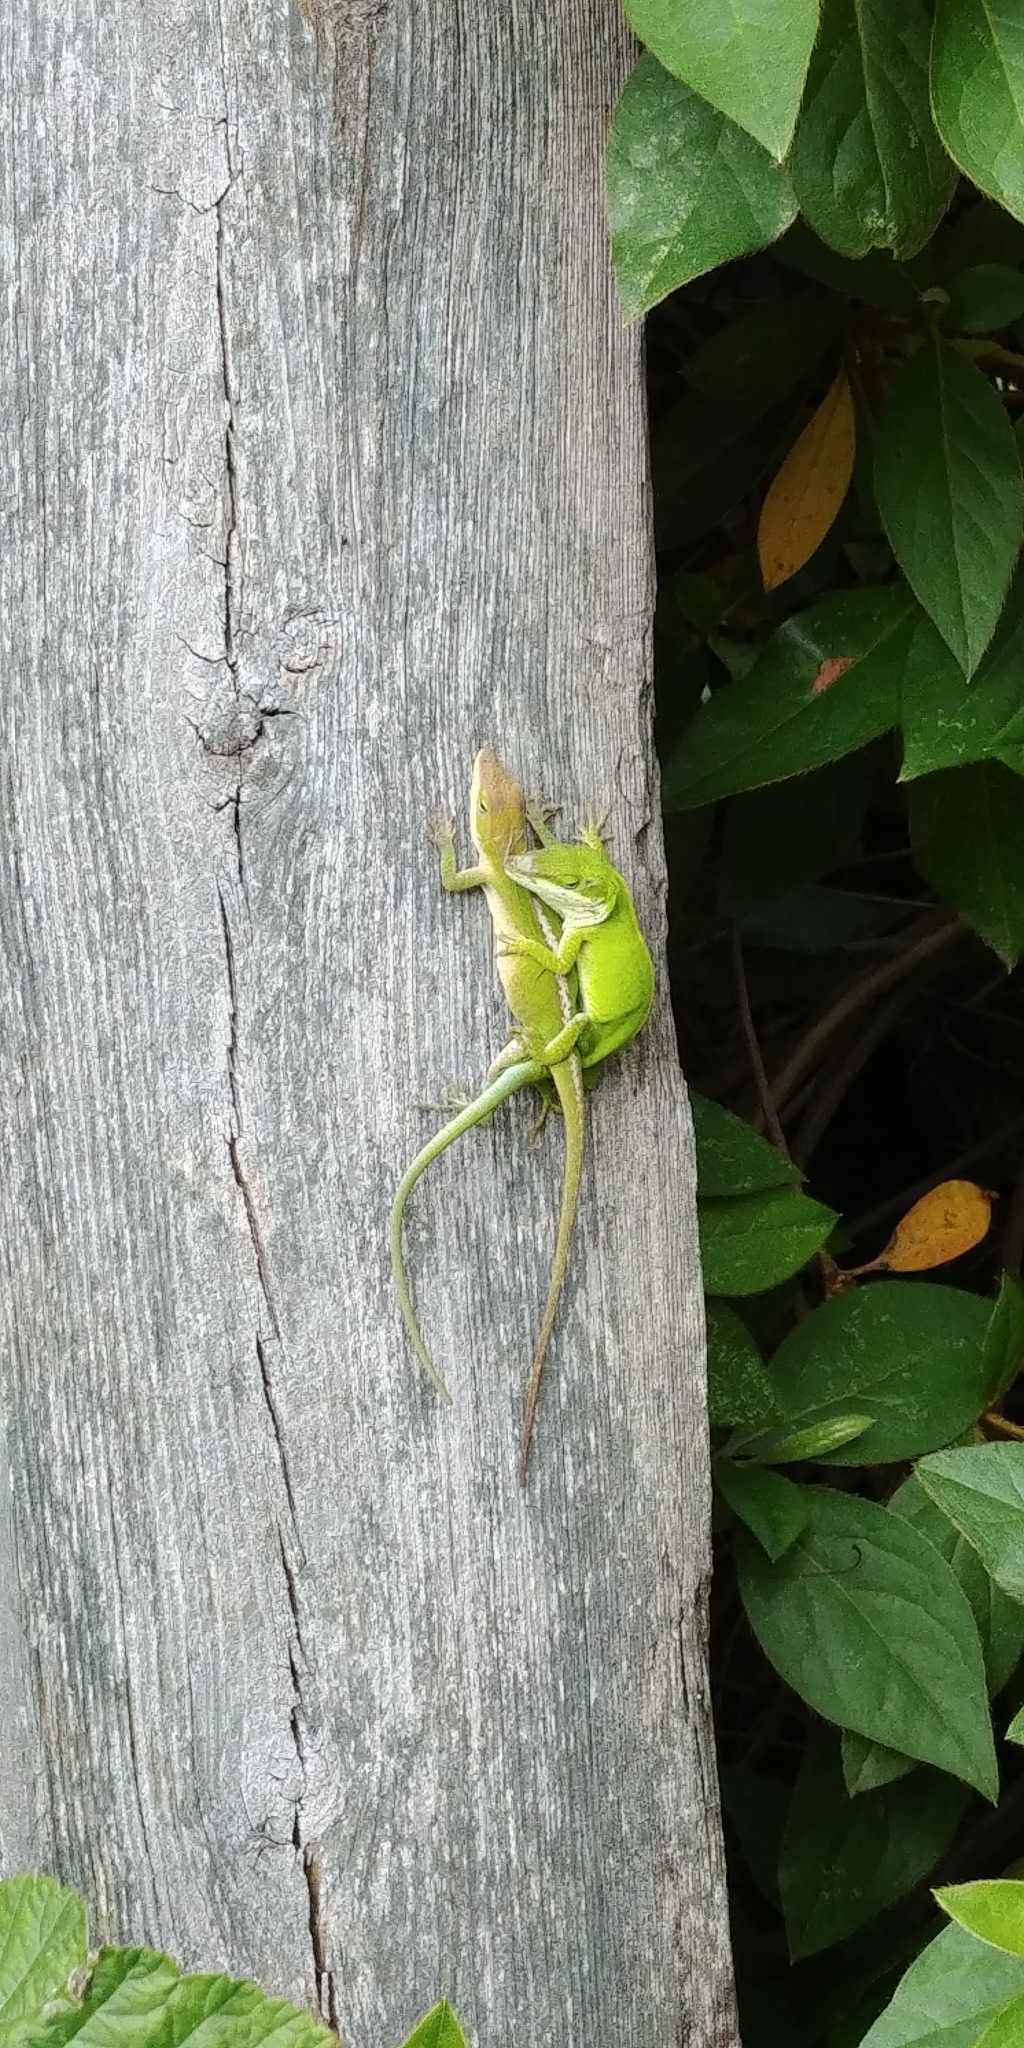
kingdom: Animalia
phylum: Chordata
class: Squamata
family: Dactyloidae
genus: Anolis
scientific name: Anolis carolinensis
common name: Green anole
